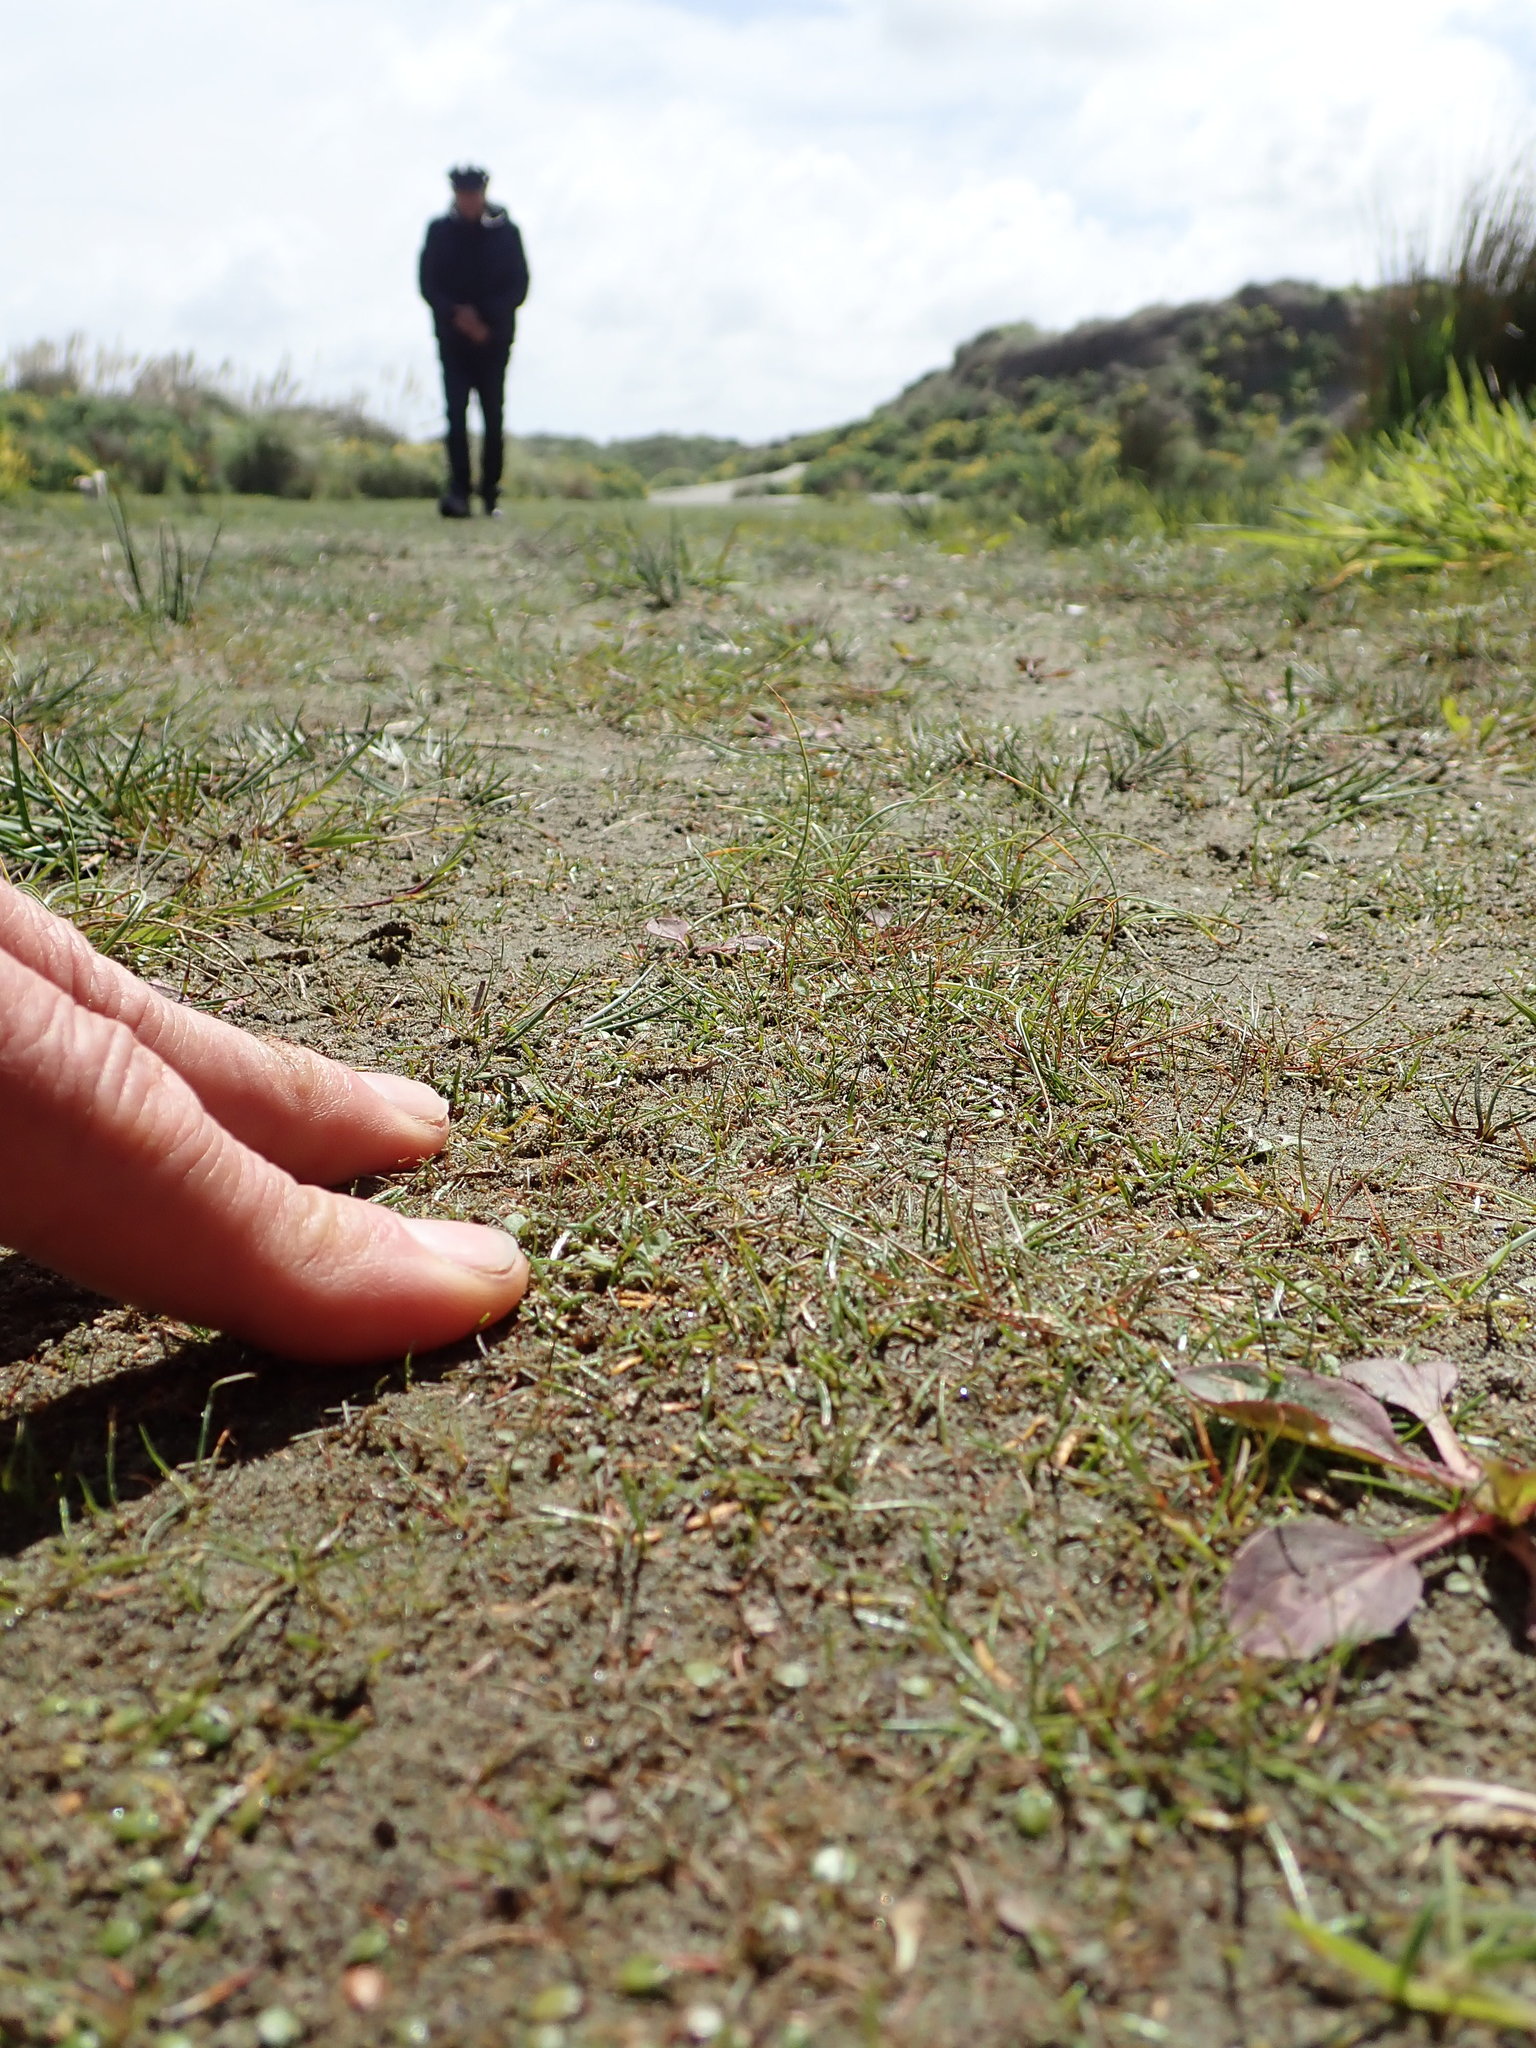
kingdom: Plantae
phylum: Tracheophyta
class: Magnoliopsida
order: Apiales
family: Apiaceae
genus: Lilaeopsis
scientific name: Lilaeopsis novae-zelandiae
